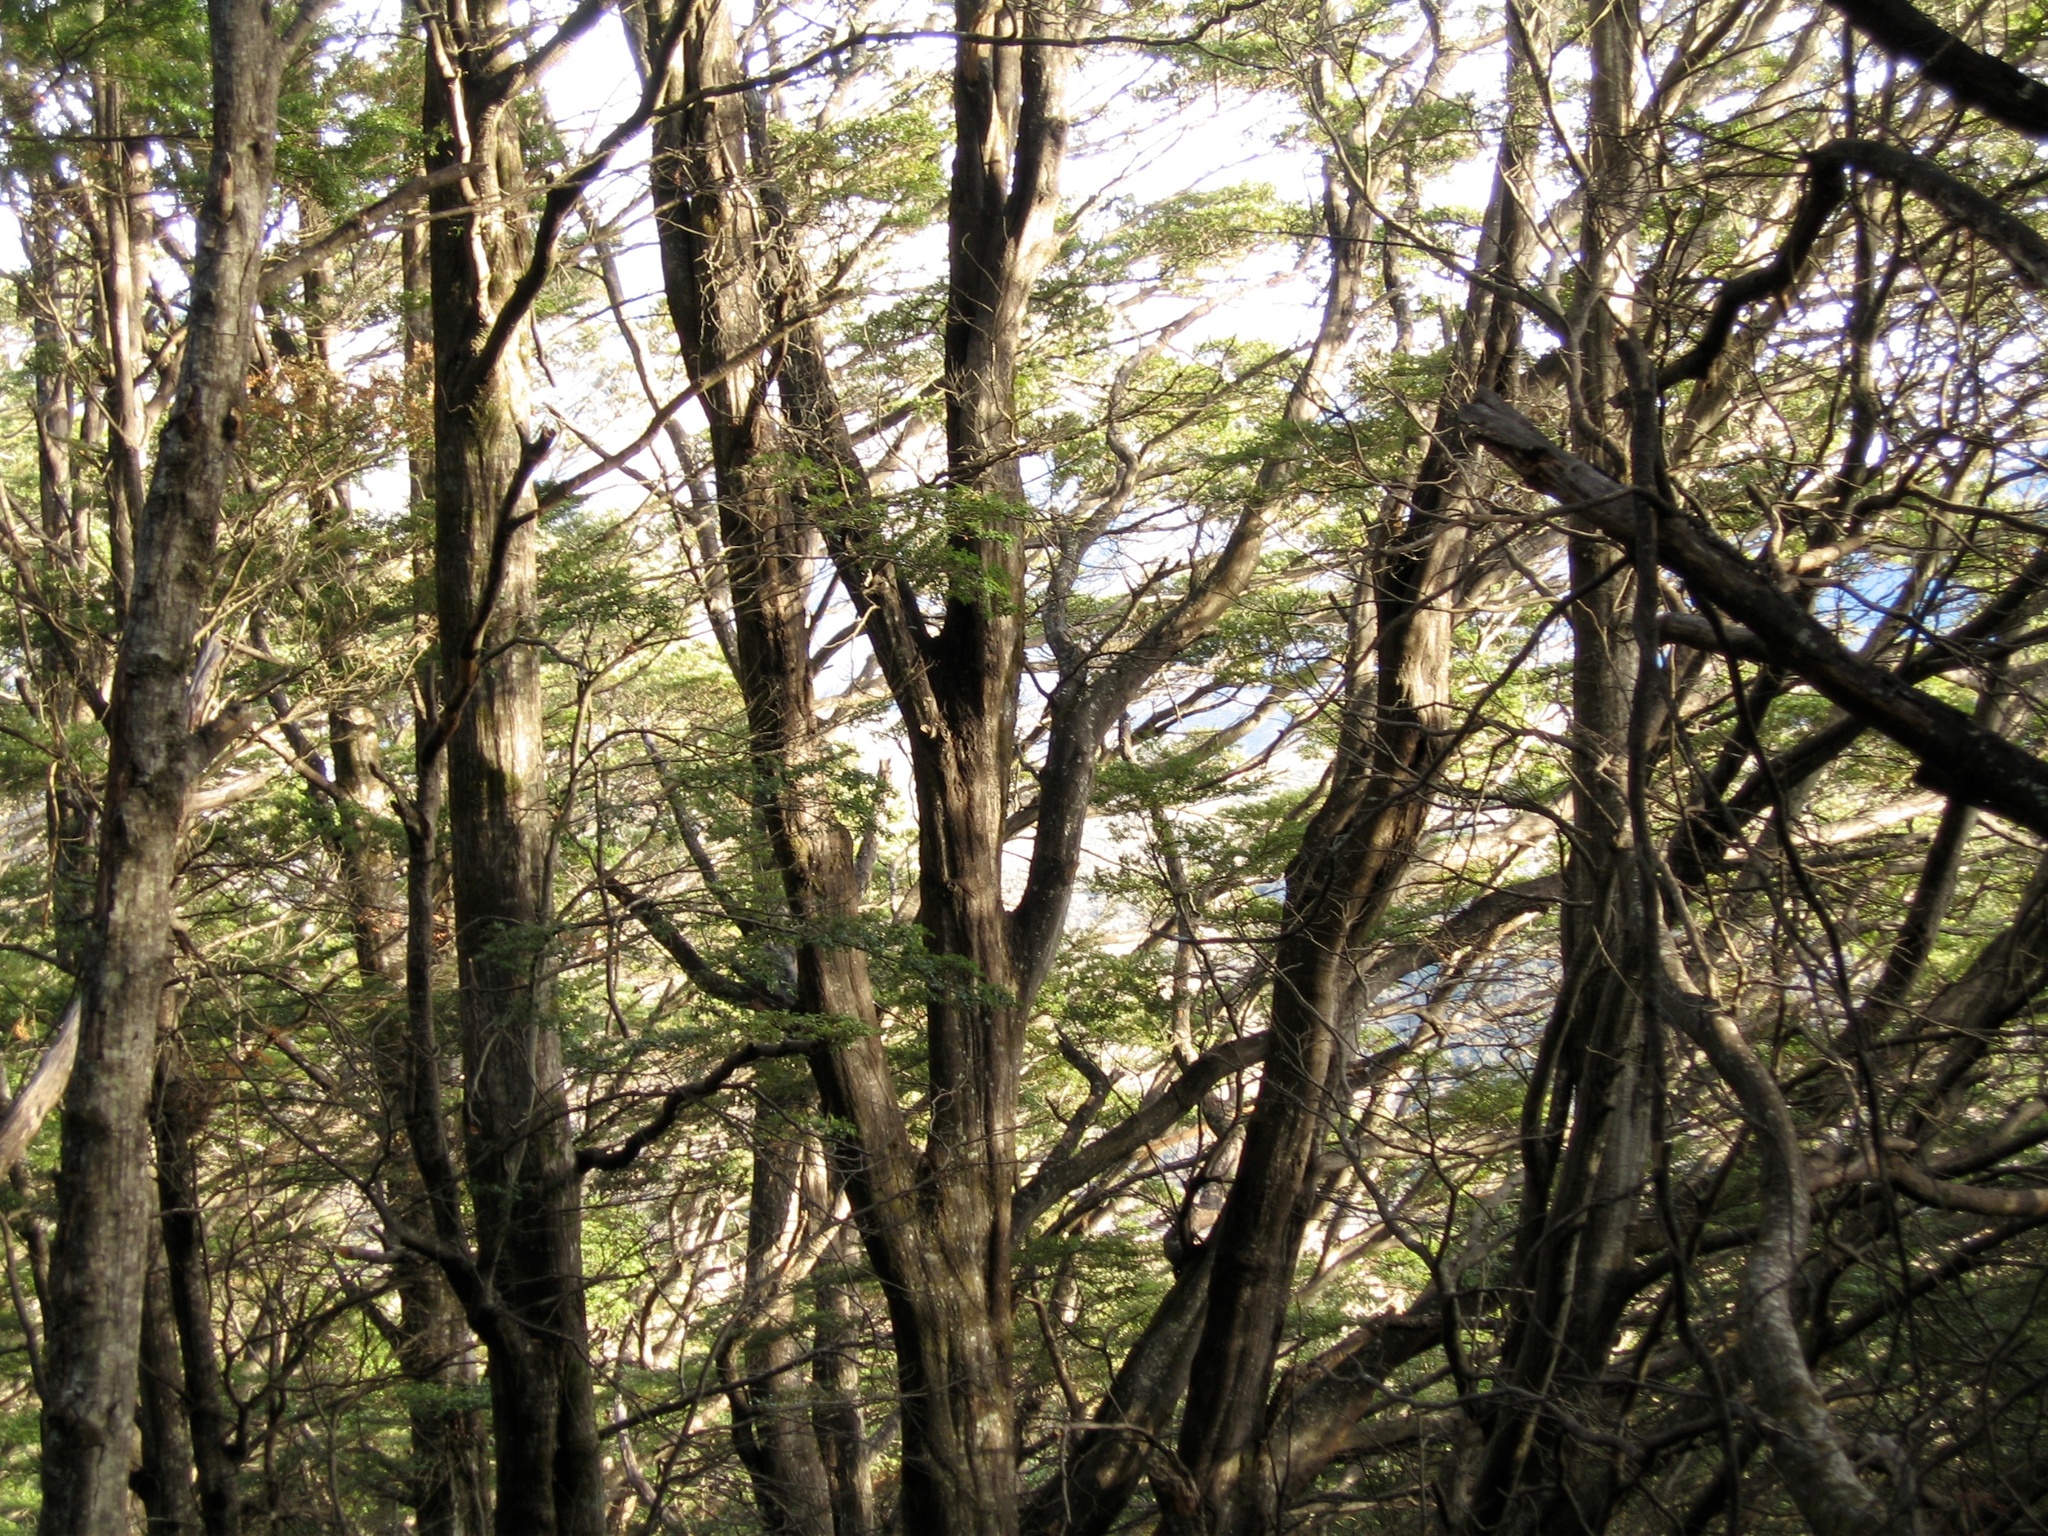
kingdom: Plantae
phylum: Tracheophyta
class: Magnoliopsida
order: Fagales
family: Nothofagaceae
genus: Nothofagus
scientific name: Nothofagus cliffortioides
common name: Mountain beech
